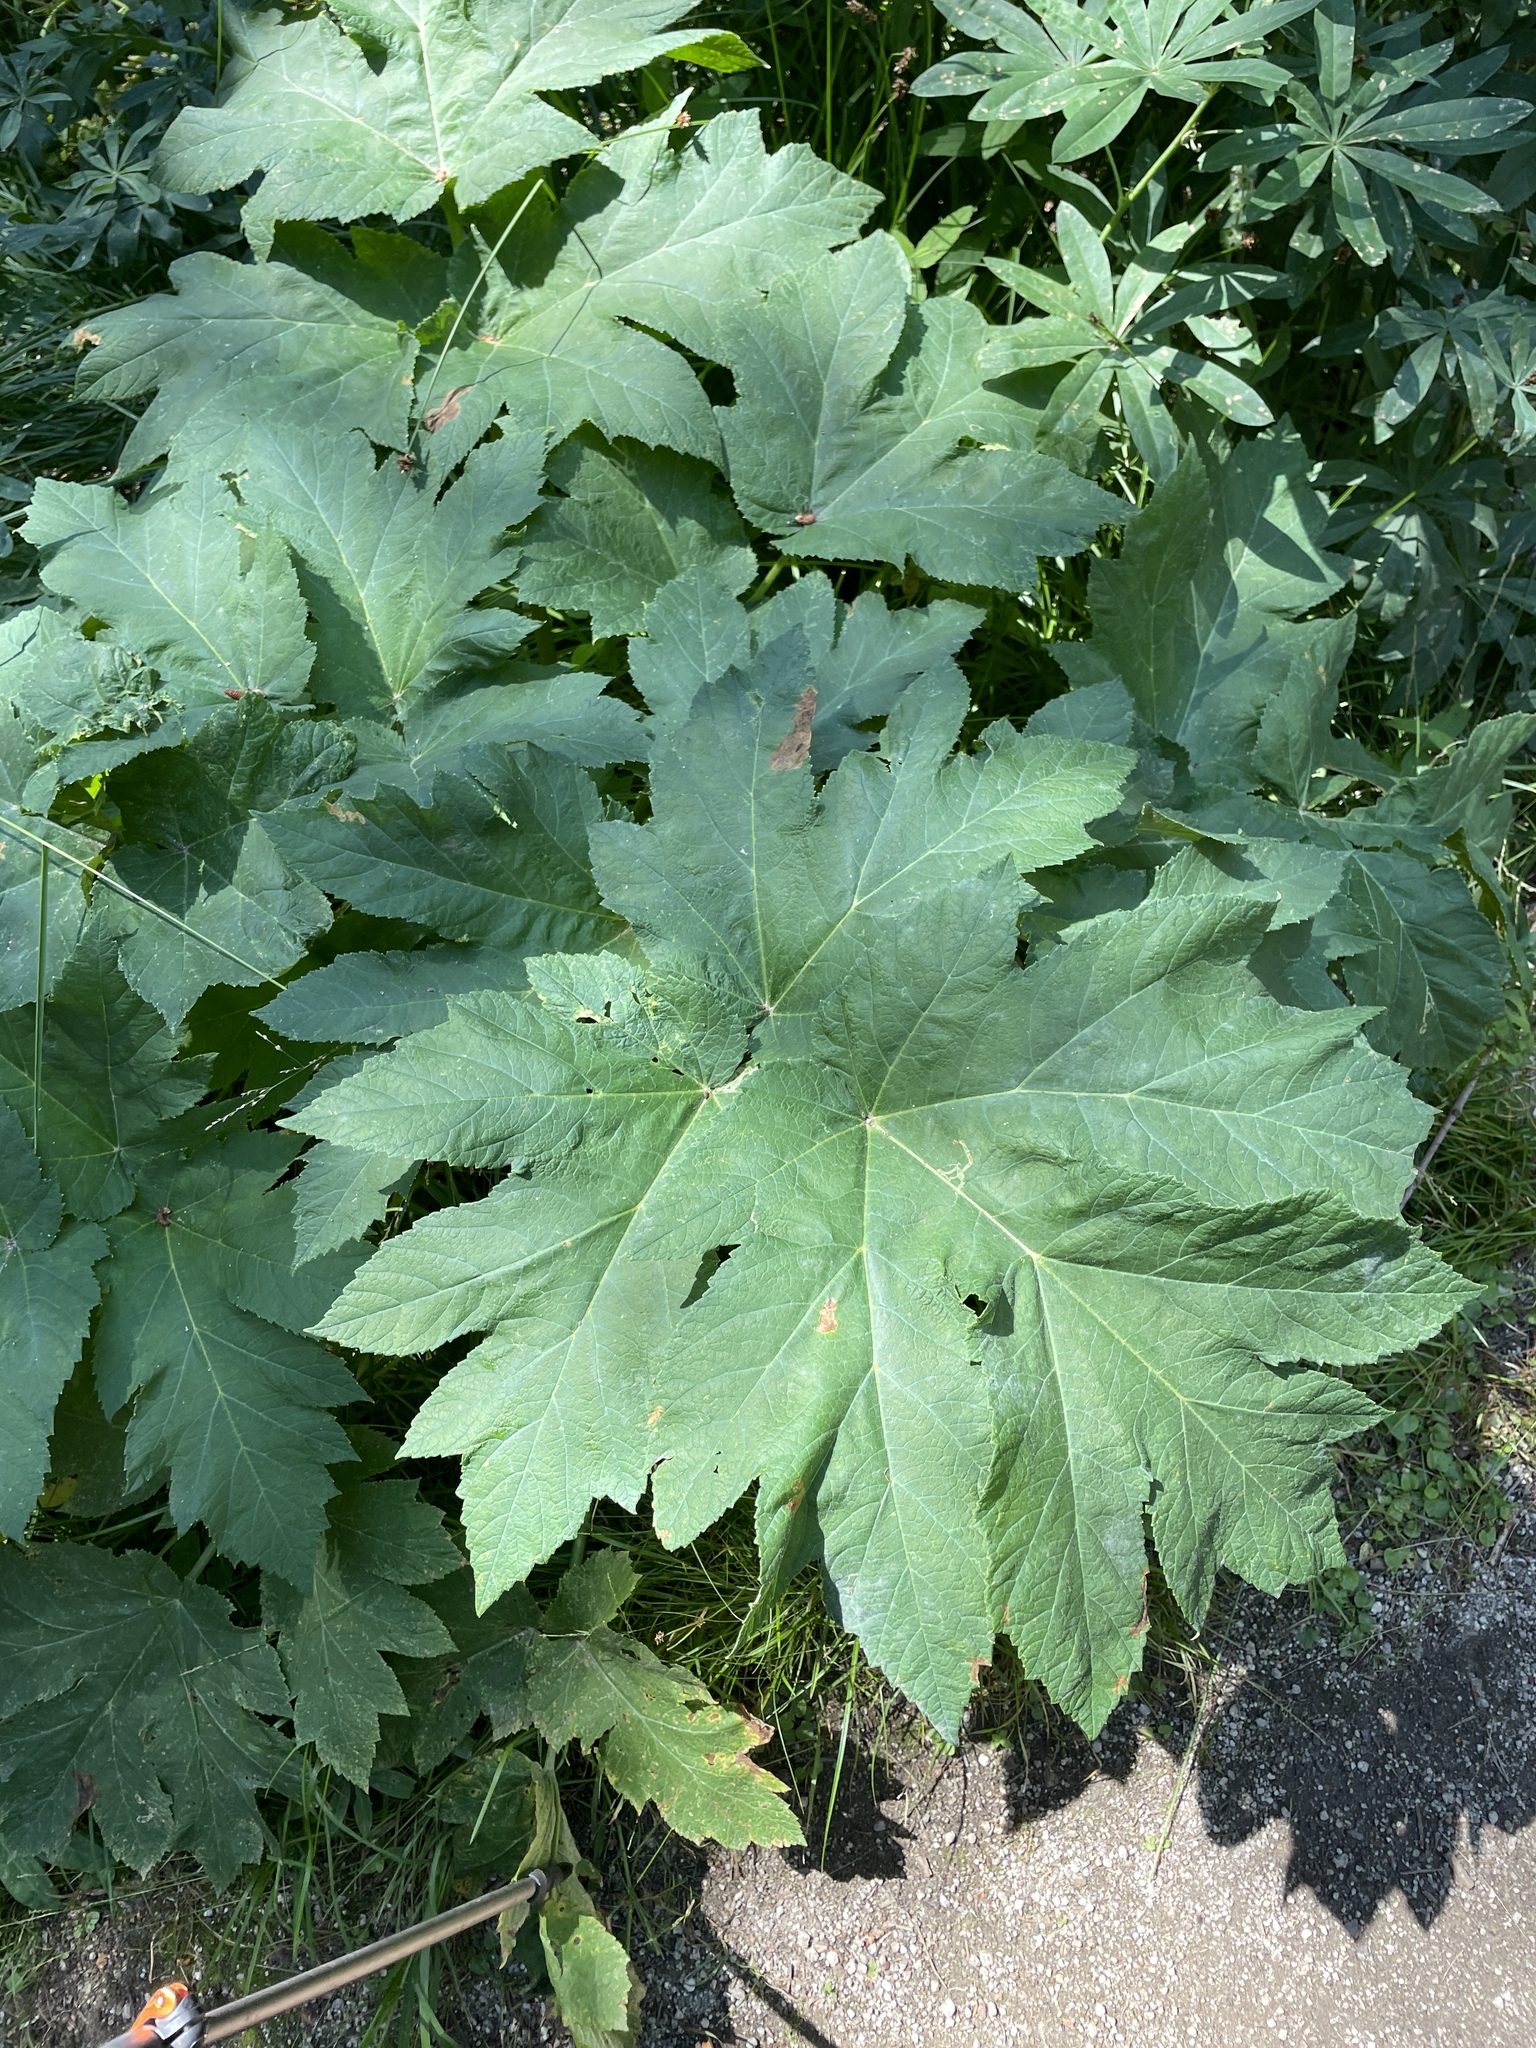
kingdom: Plantae
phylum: Tracheophyta
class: Magnoliopsida
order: Apiales
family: Apiaceae
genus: Heracleum
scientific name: Heracleum maximum
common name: American cow parsnip
